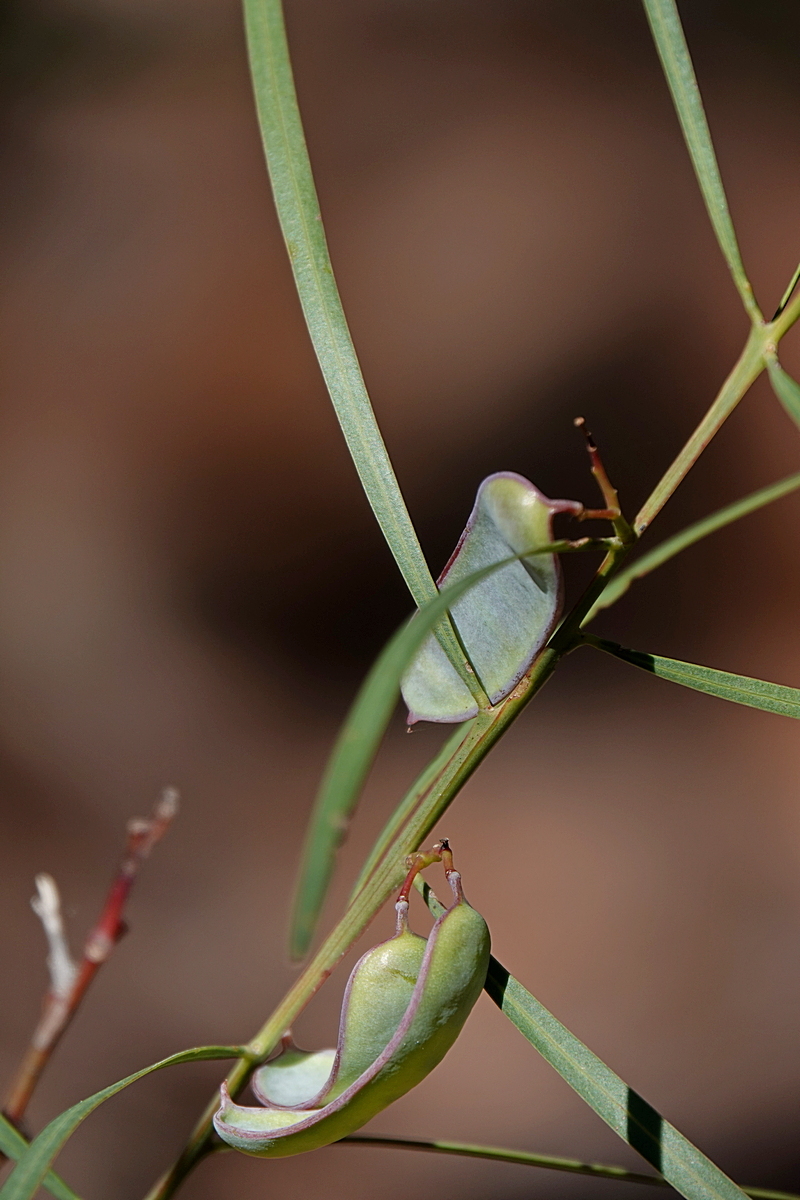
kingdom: Plantae
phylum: Tracheophyta
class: Magnoliopsida
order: Fabales
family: Fabaceae
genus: Acacia
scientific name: Acacia suaveolens
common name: Sweet acacia
